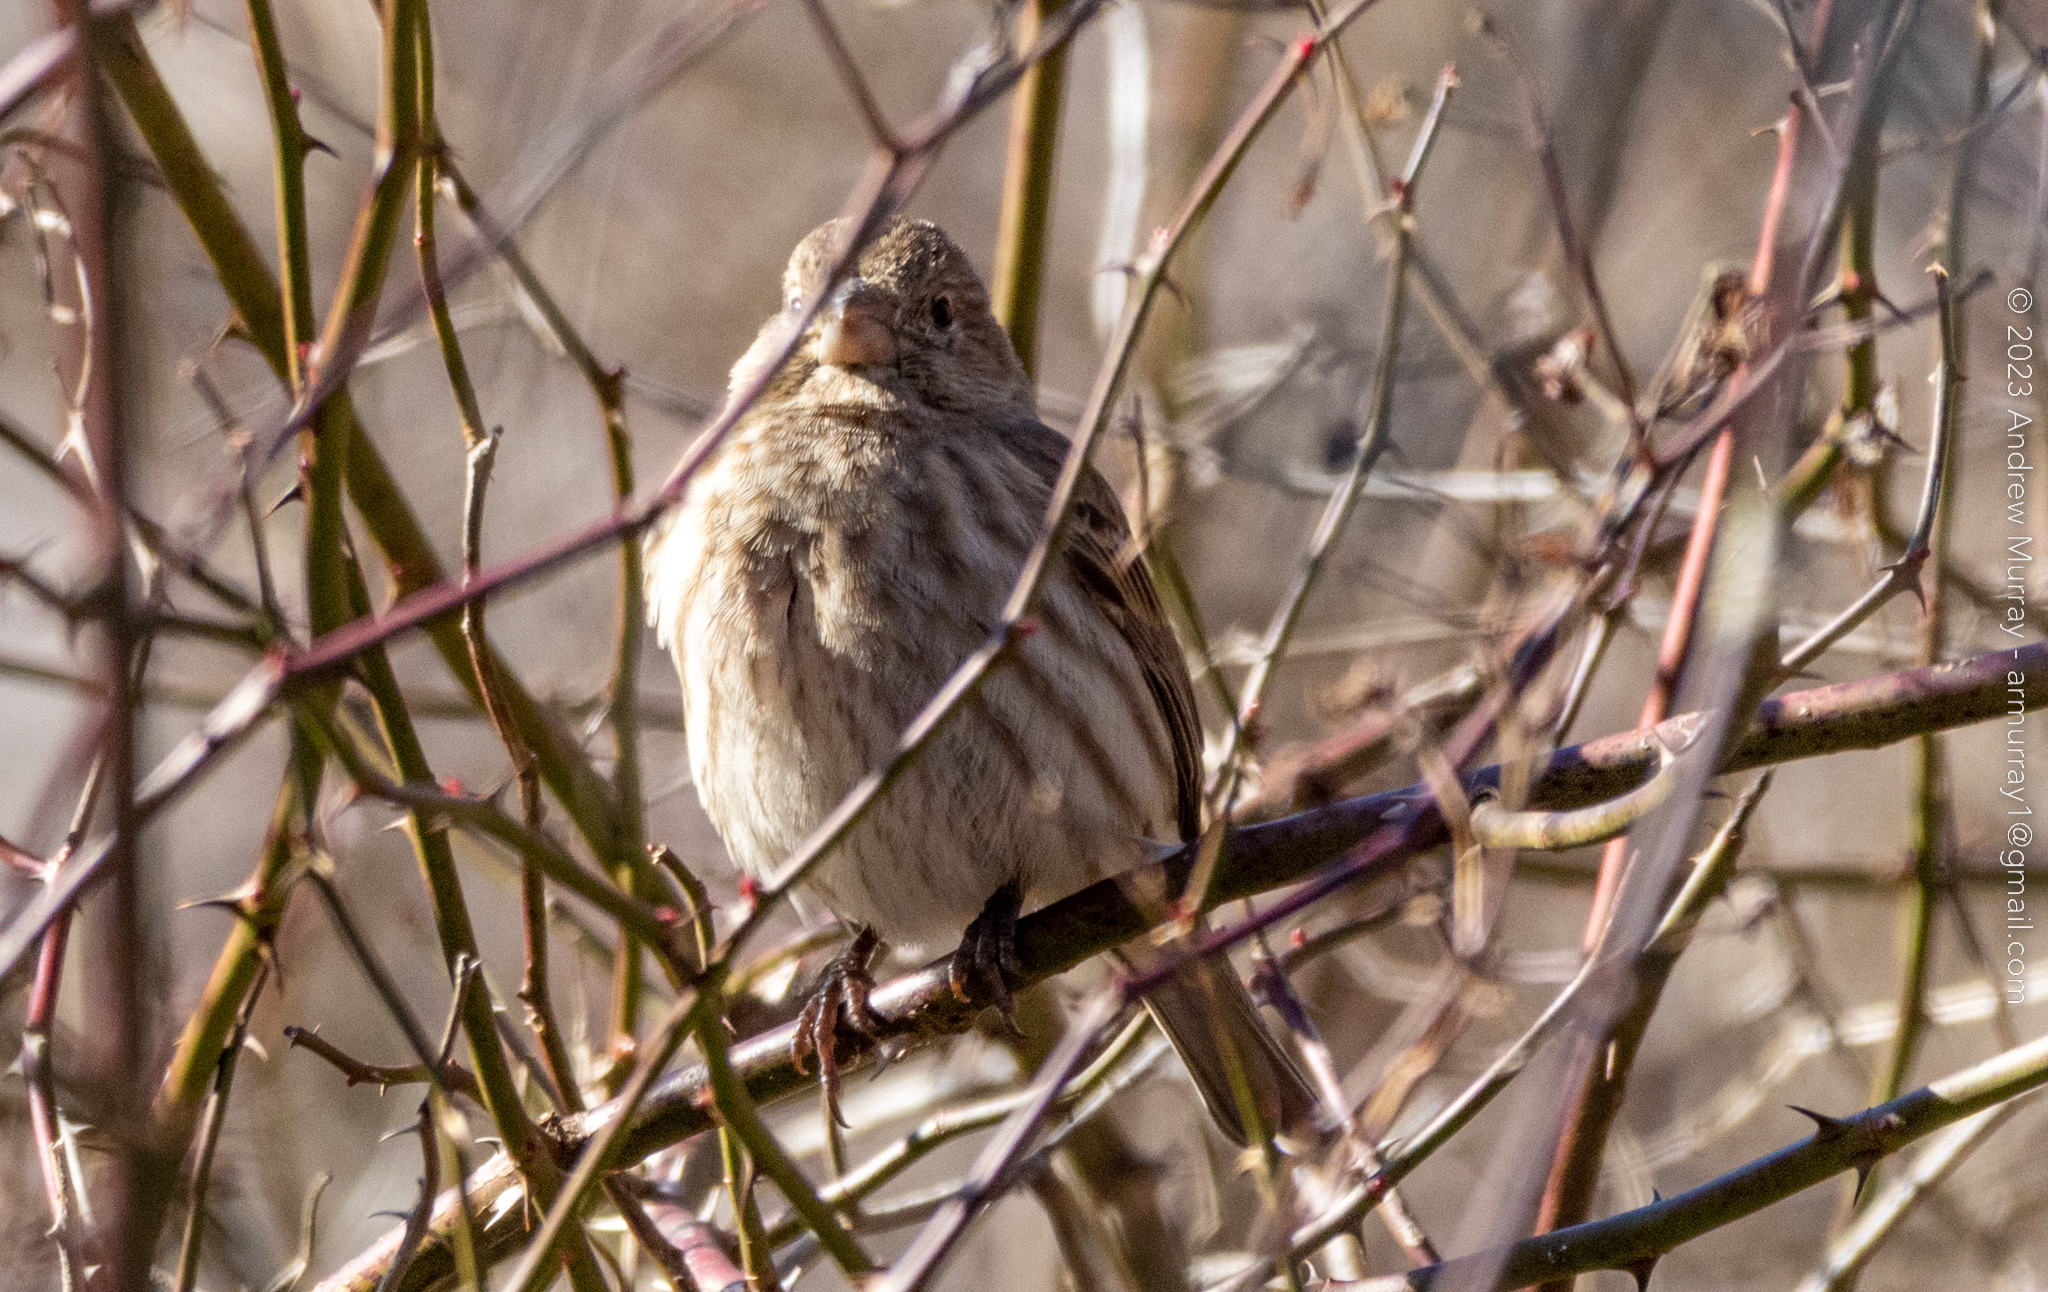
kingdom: Animalia
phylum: Chordata
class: Aves
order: Passeriformes
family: Fringillidae
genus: Haemorhous
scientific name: Haemorhous mexicanus
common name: House finch
